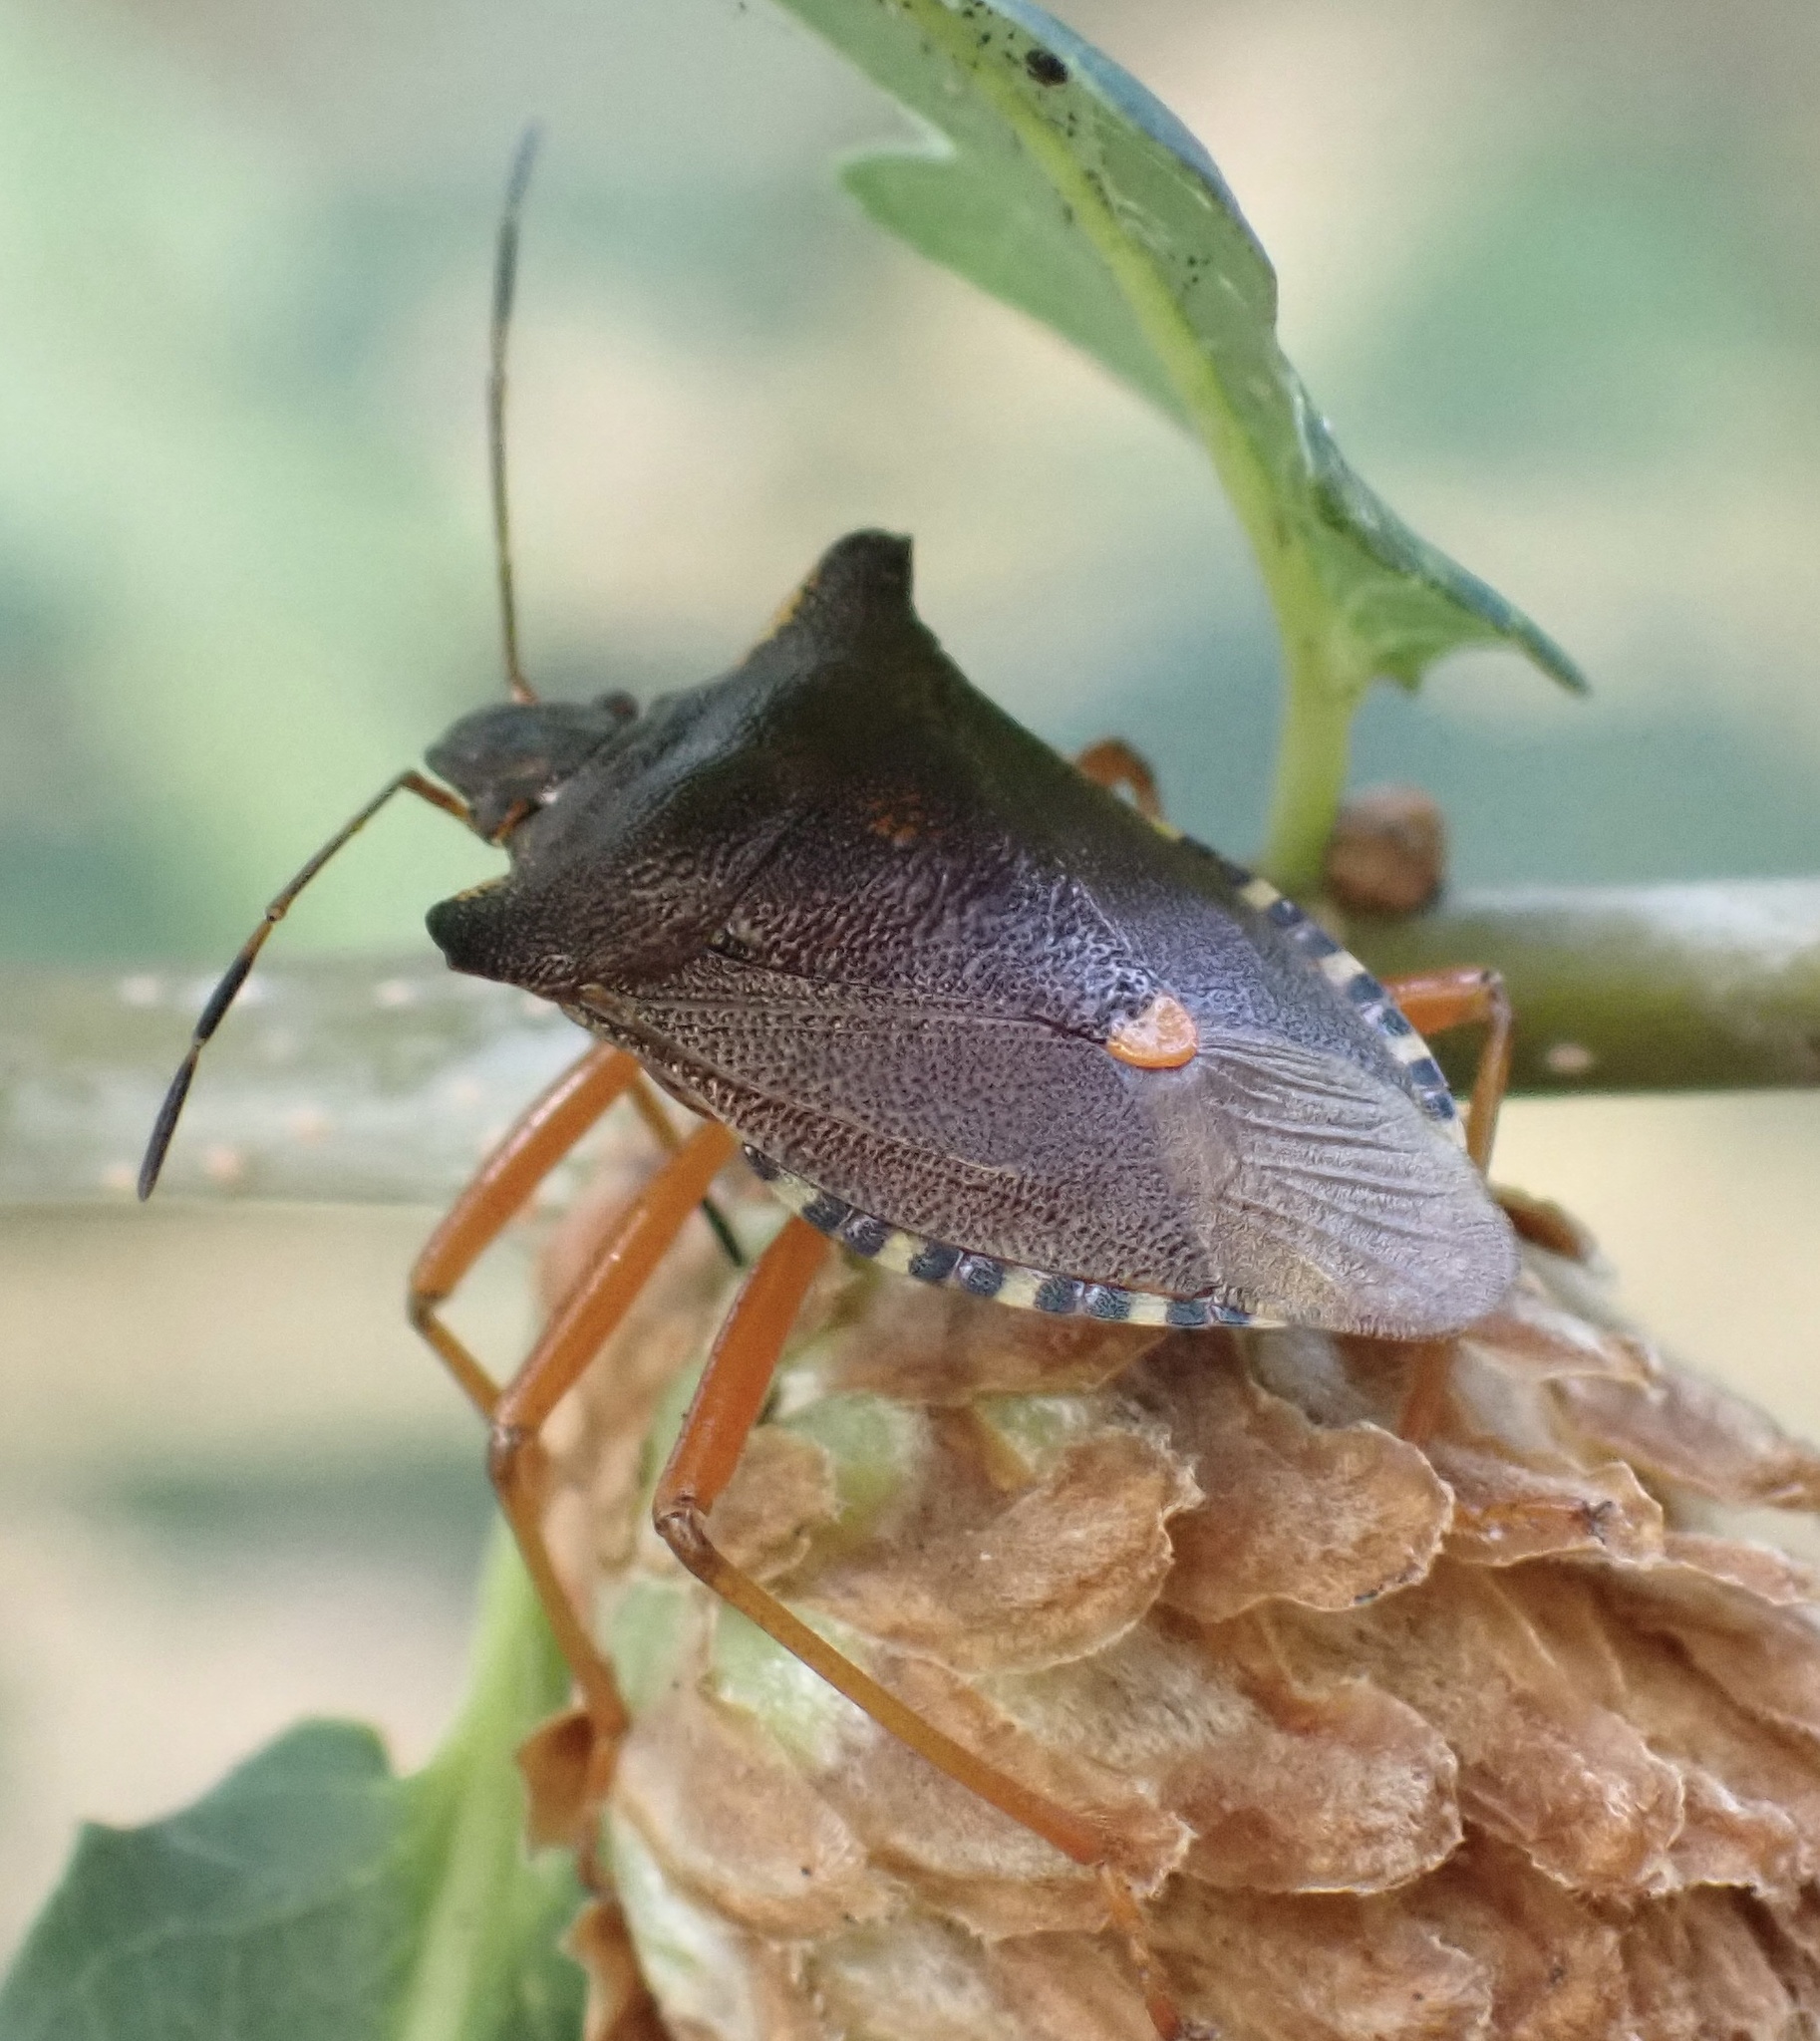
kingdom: Animalia
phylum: Arthropoda
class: Insecta
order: Hemiptera
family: Pentatomidae
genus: Pentatoma
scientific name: Pentatoma rufipes
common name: Forest bug
